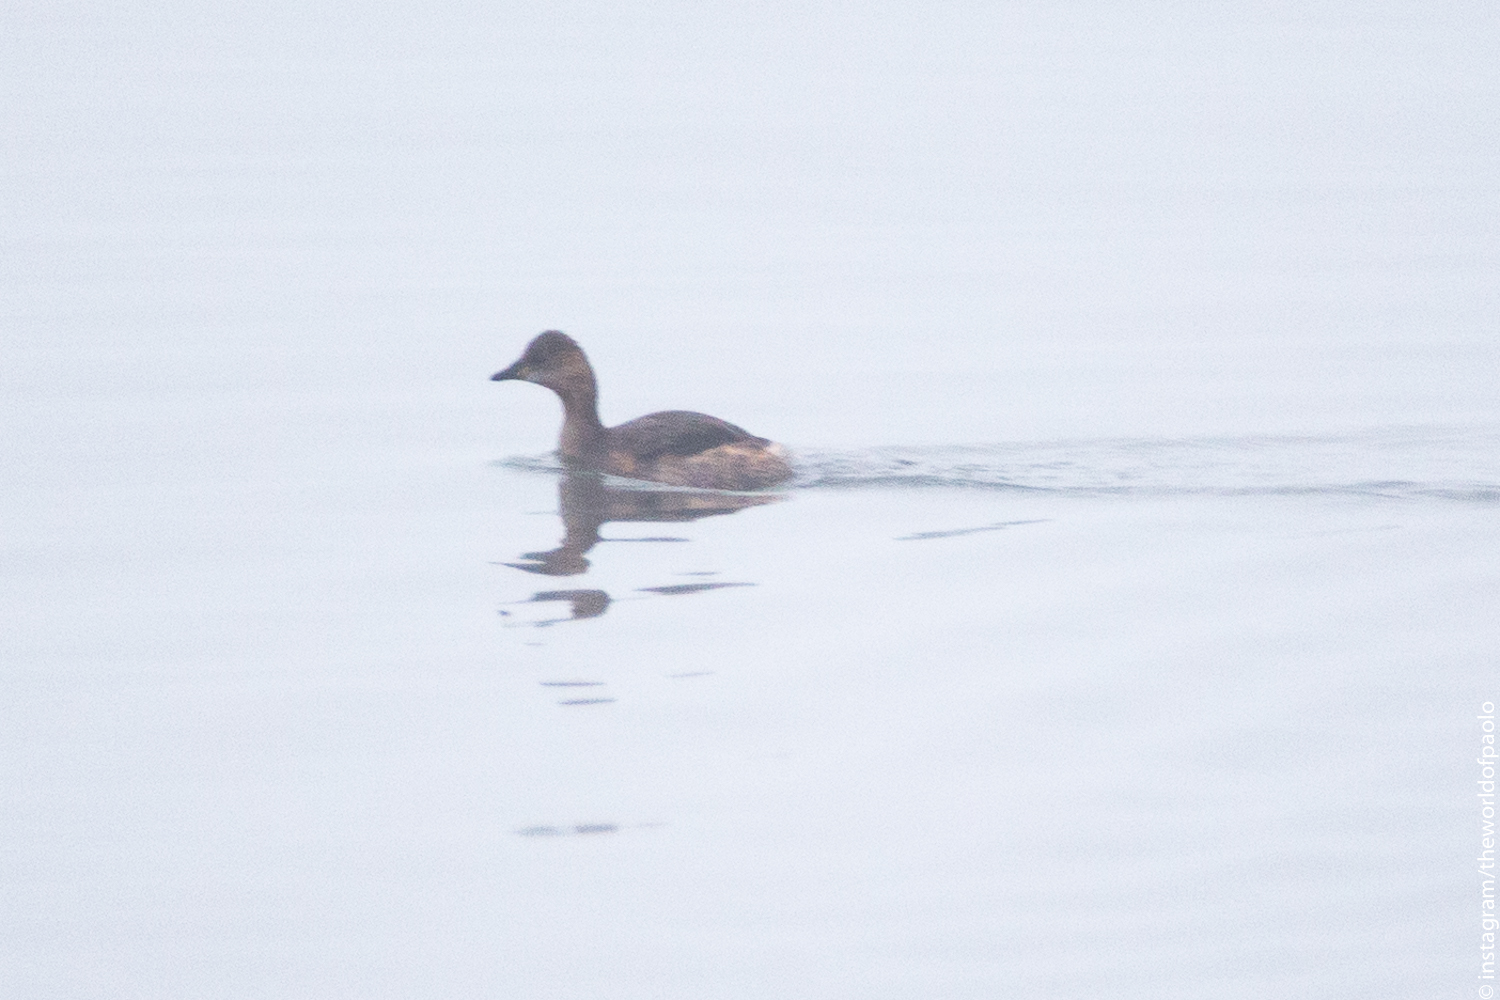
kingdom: Animalia
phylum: Chordata
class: Aves
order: Podicipediformes
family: Podicipedidae
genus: Tachybaptus
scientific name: Tachybaptus ruficollis
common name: Little grebe
